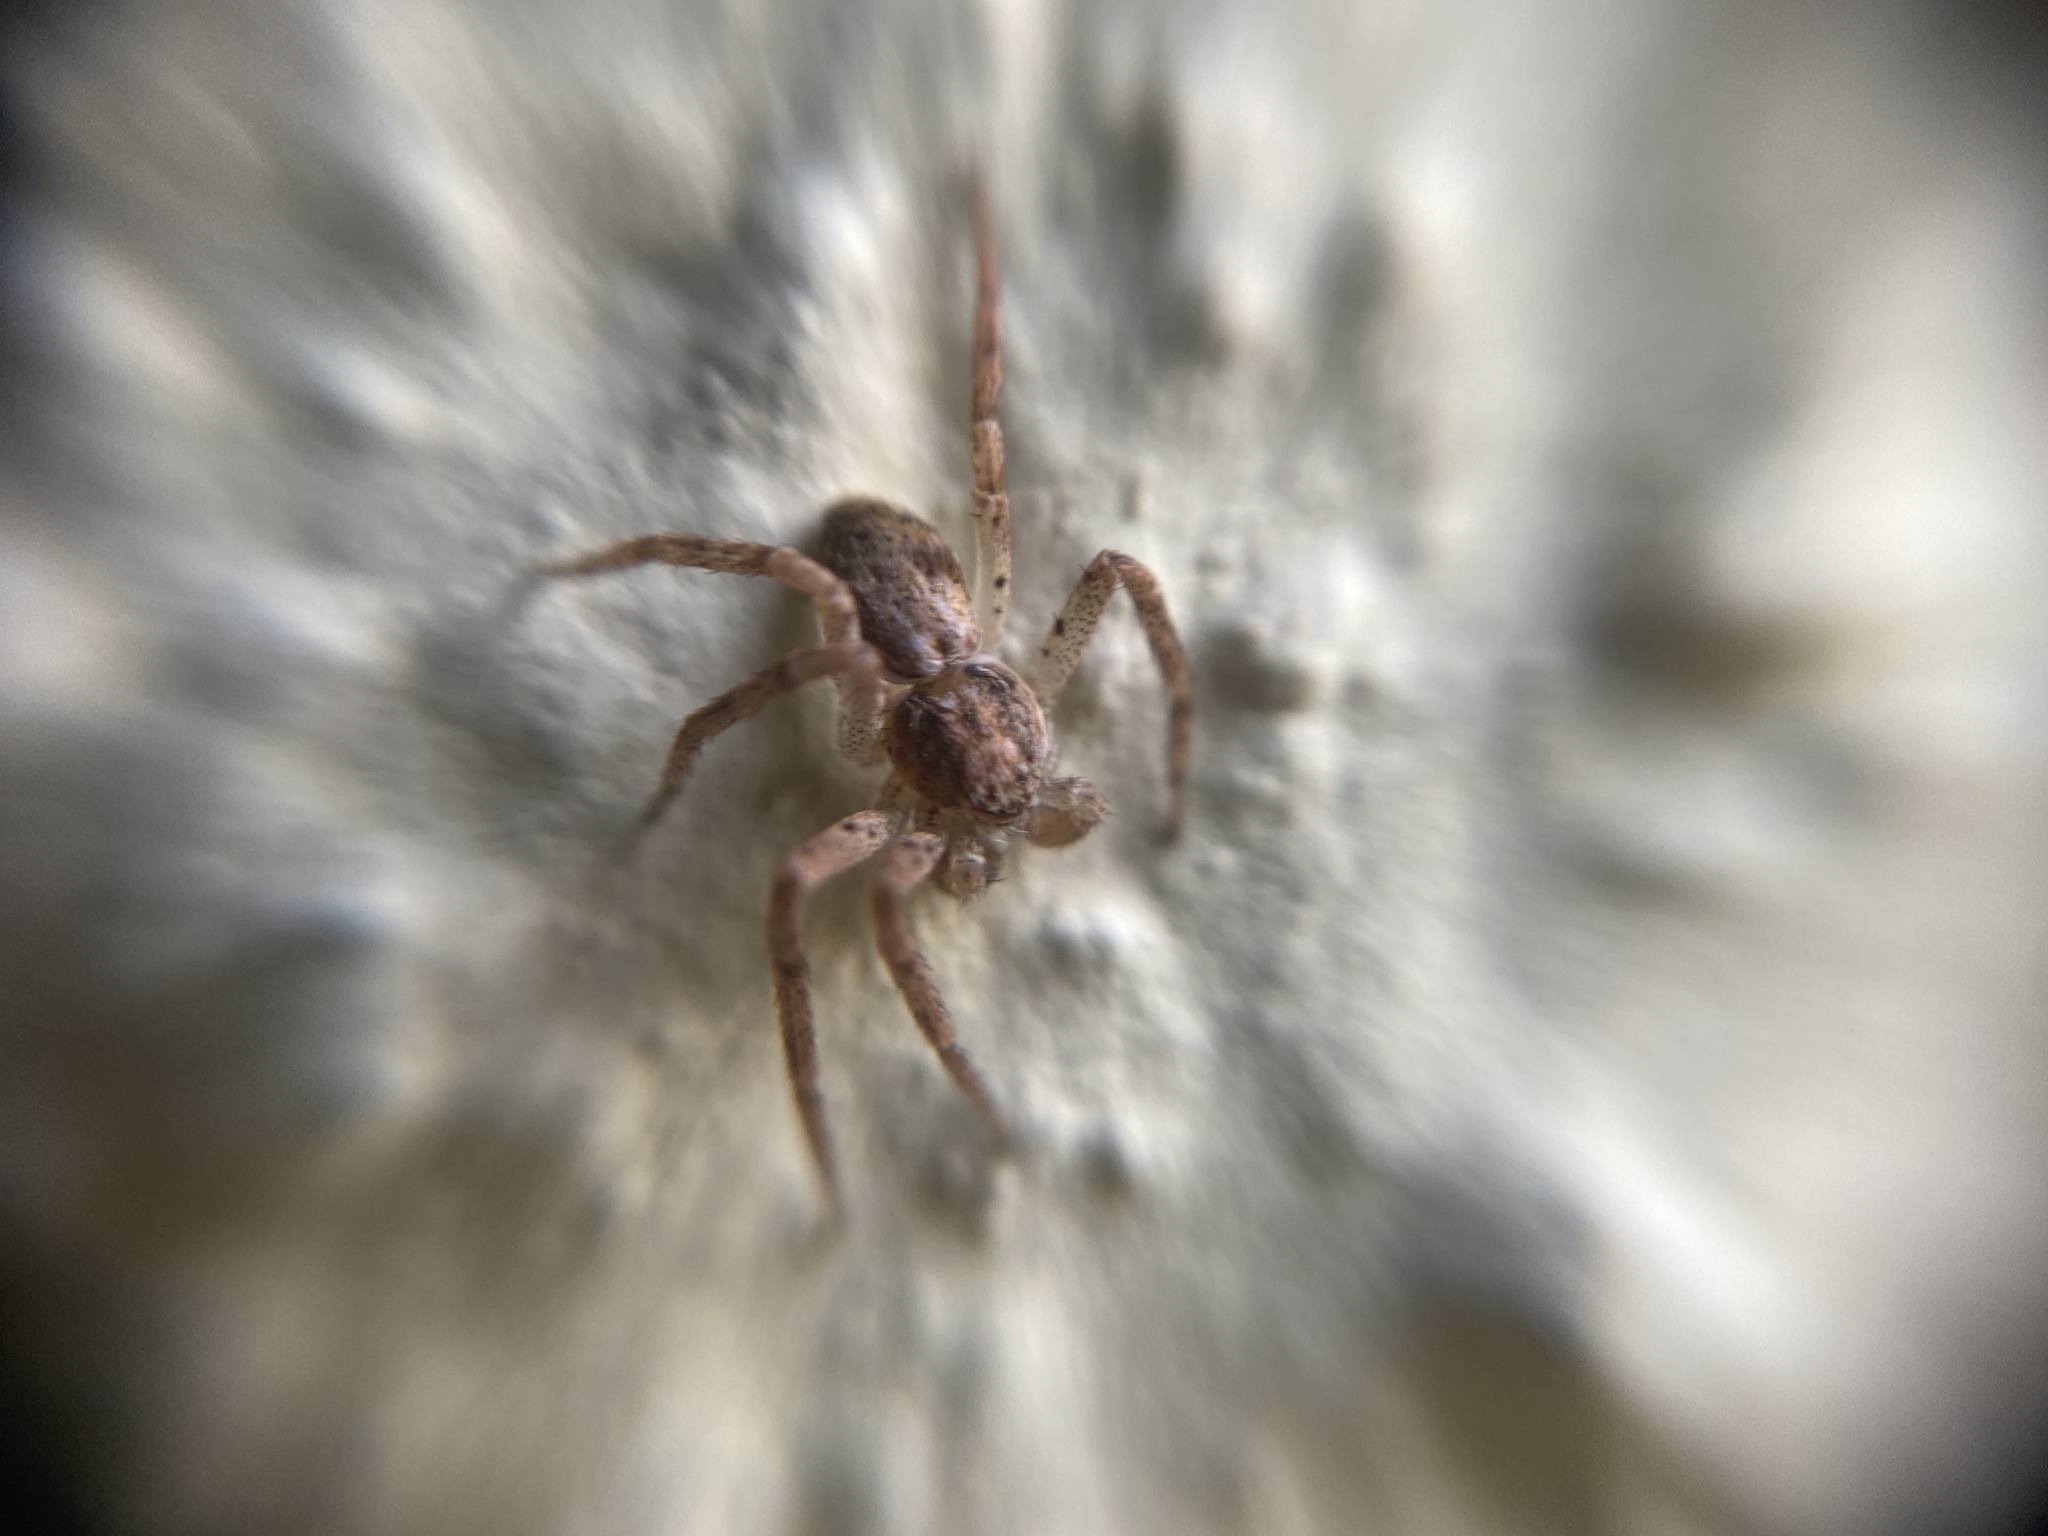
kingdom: Animalia
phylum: Arthropoda
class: Arachnida
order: Araneae
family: Philodromidae
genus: Philodromus
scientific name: Philodromus dispar
